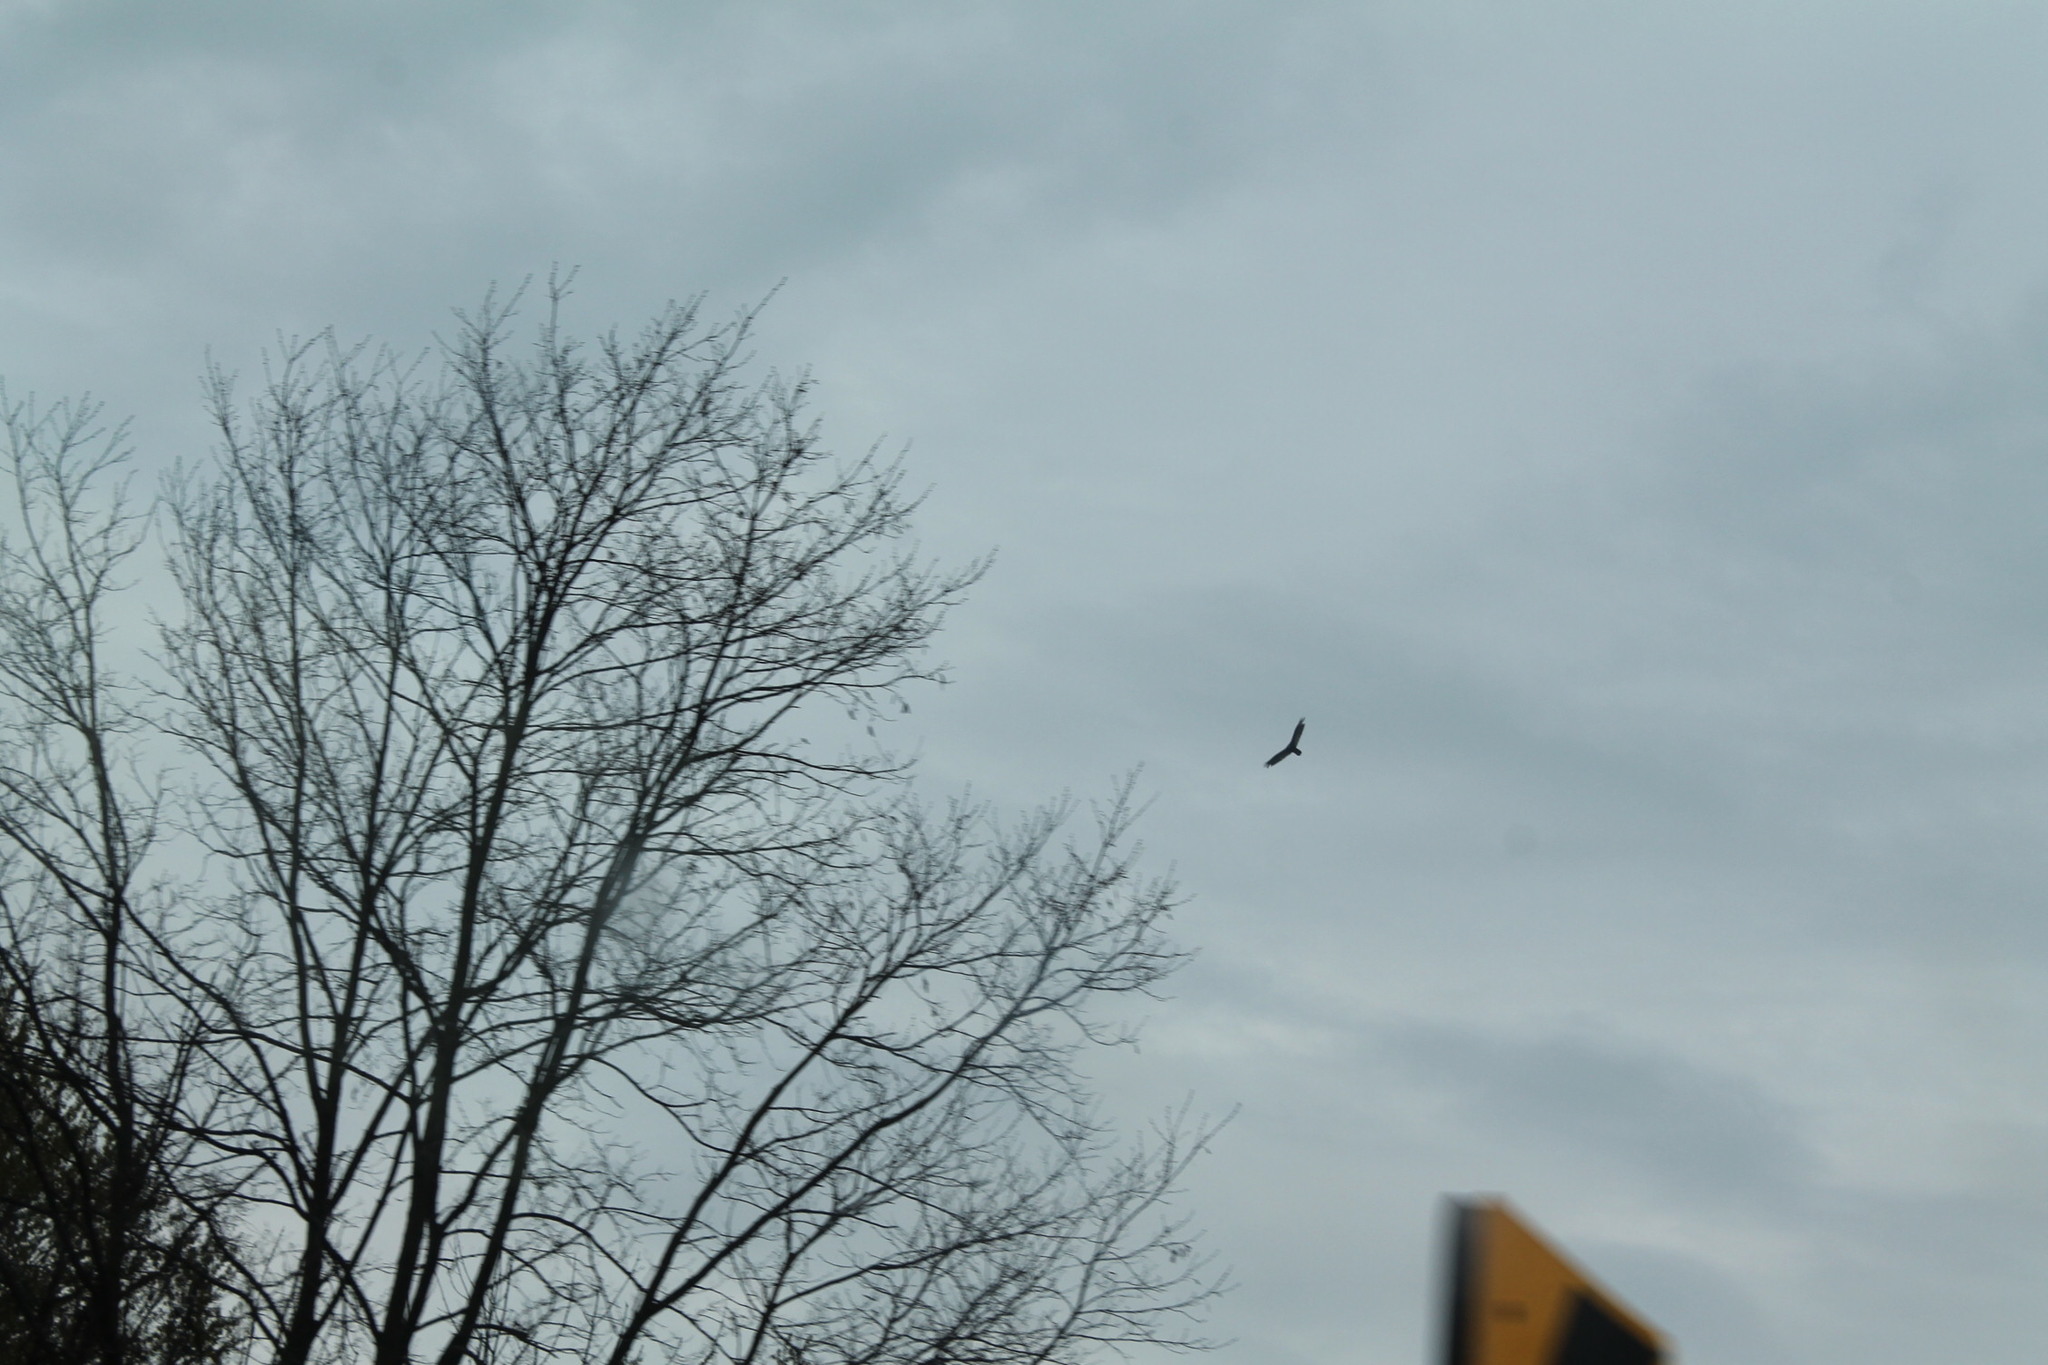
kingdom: Animalia
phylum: Chordata
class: Aves
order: Accipitriformes
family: Cathartidae
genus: Cathartes
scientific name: Cathartes aura
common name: Turkey vulture
